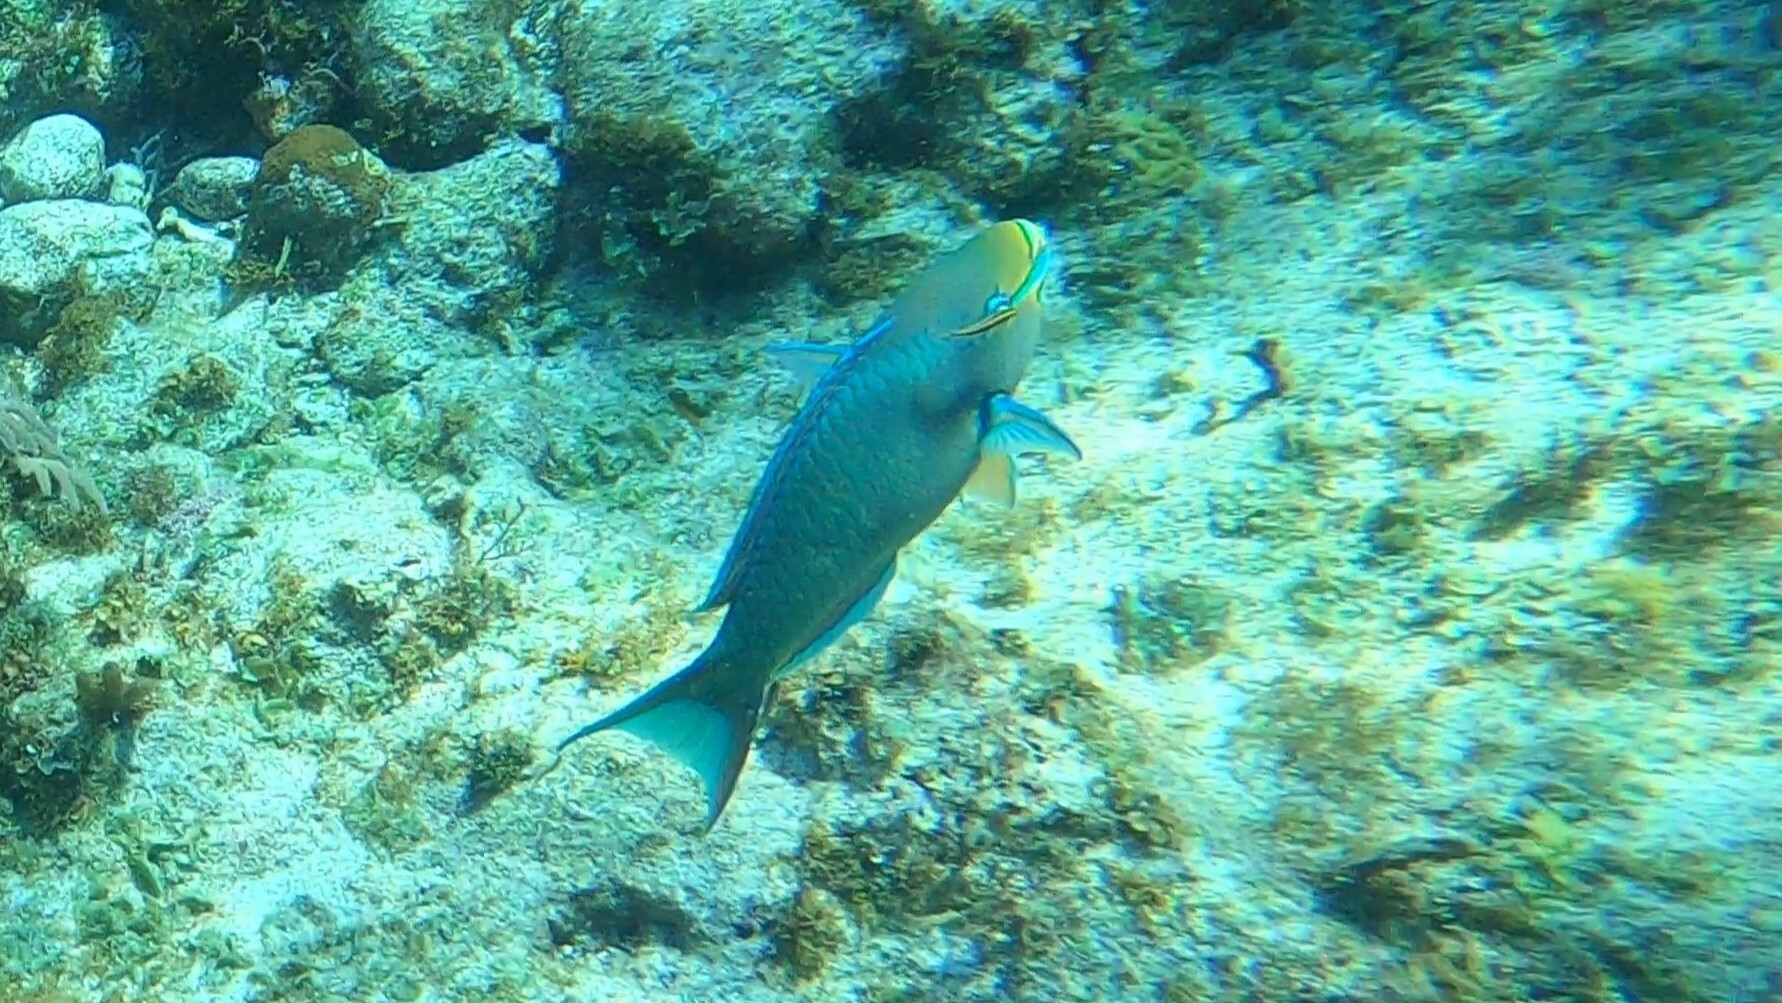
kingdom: Animalia
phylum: Chordata
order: Perciformes
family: Scaridae
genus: Scarus
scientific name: Scarus vetula
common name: Queen parrotfish
